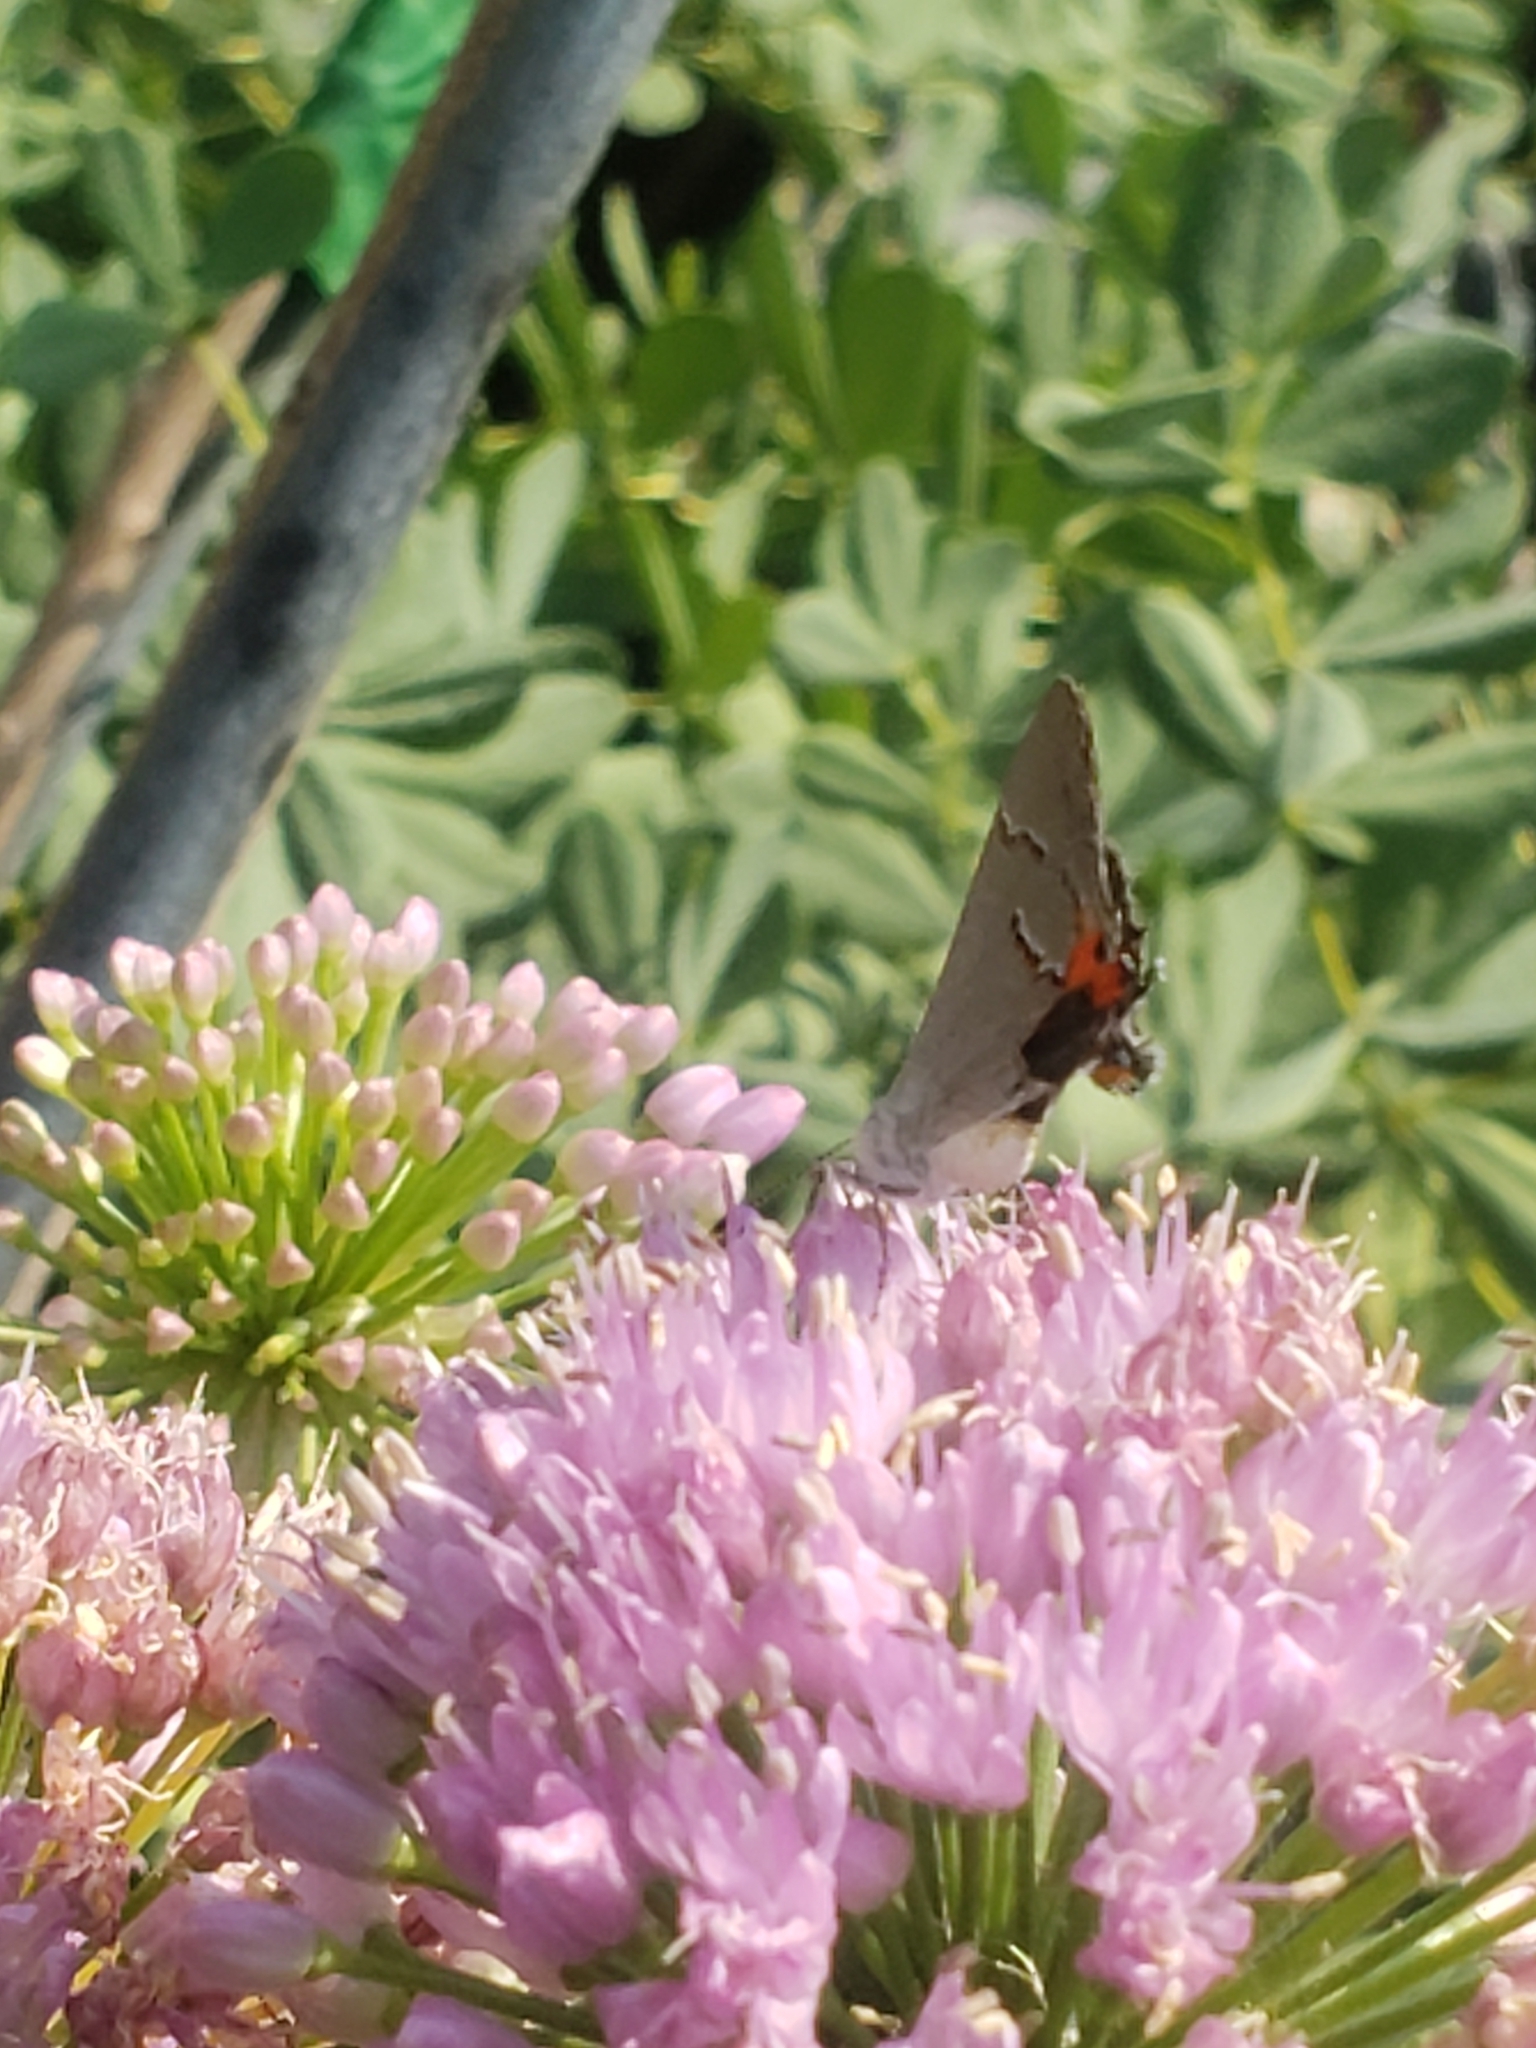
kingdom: Animalia
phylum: Arthropoda
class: Insecta
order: Lepidoptera
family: Lycaenidae
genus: Strymon
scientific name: Strymon melinus
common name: Gray hairstreak
